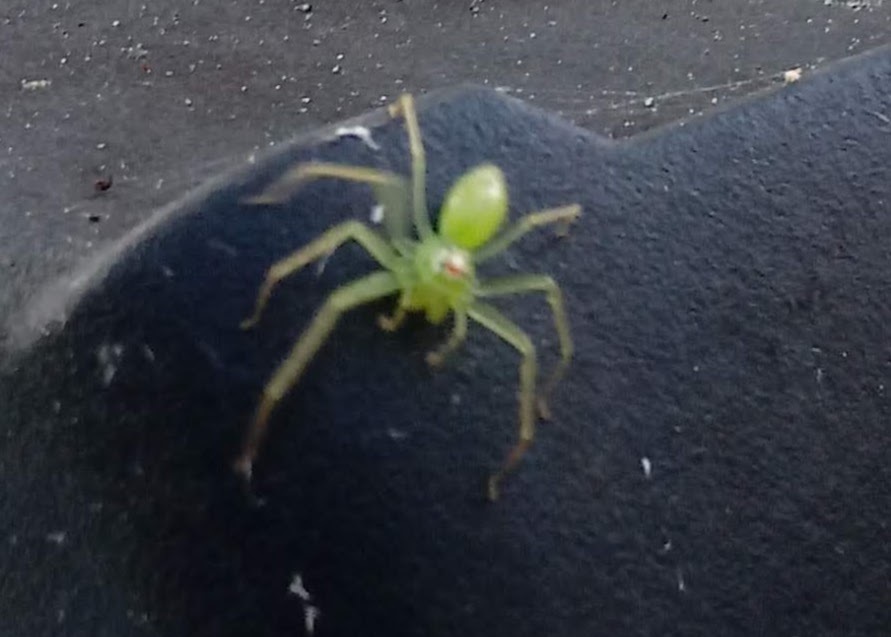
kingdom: Animalia
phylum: Arthropoda
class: Arachnida
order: Araneae
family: Salticidae
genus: Lyssomanes
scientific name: Lyssomanes viridis
